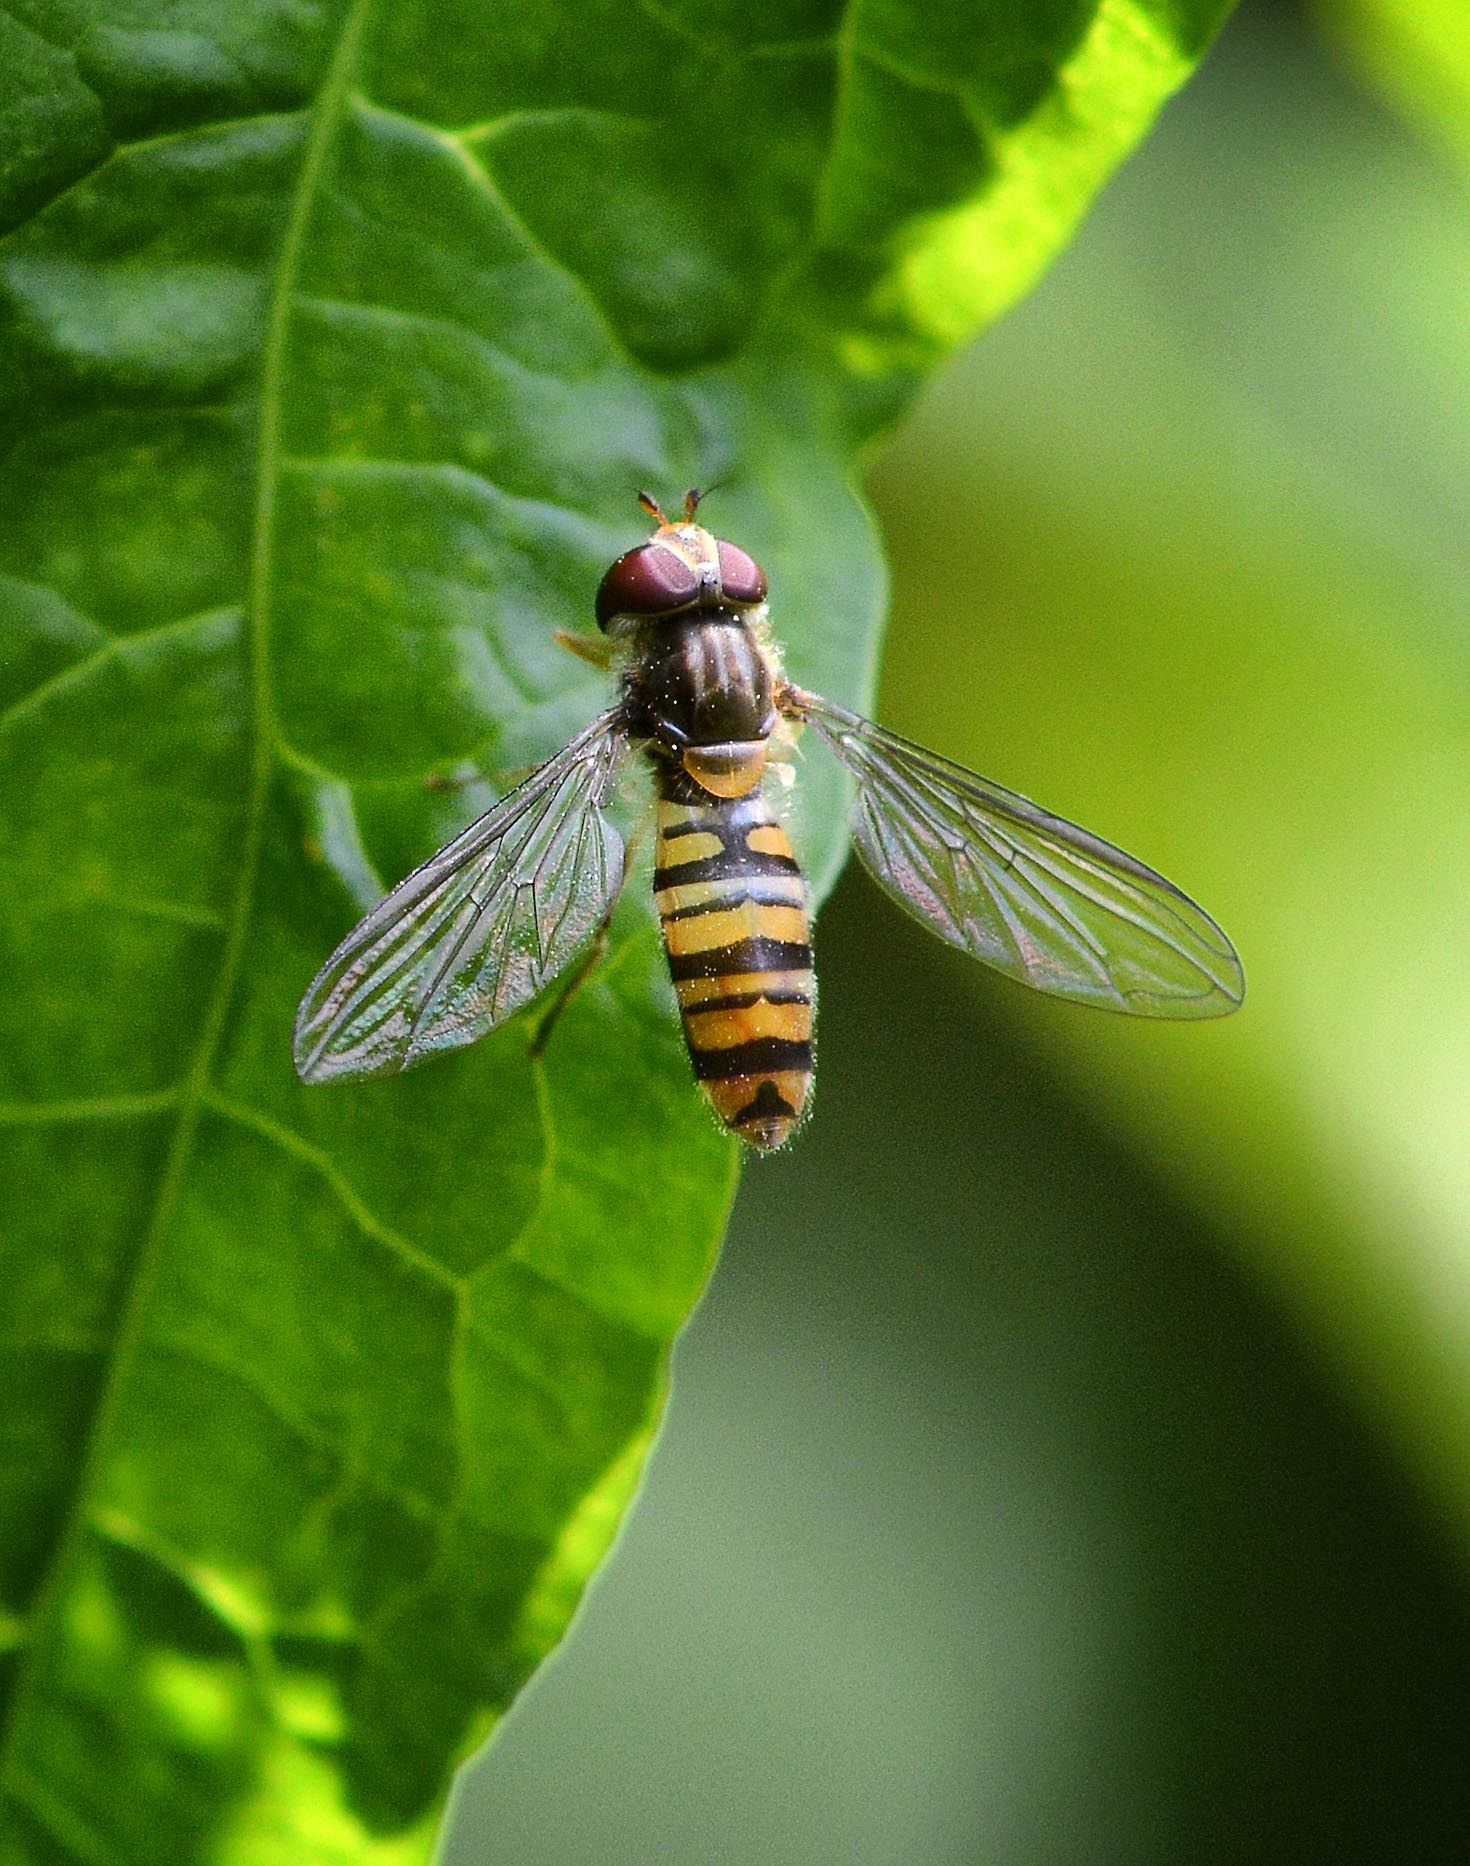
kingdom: Animalia
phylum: Arthropoda
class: Insecta
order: Diptera
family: Syrphidae
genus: Episyrphus
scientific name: Episyrphus balteatus
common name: Marmalade hoverfly
